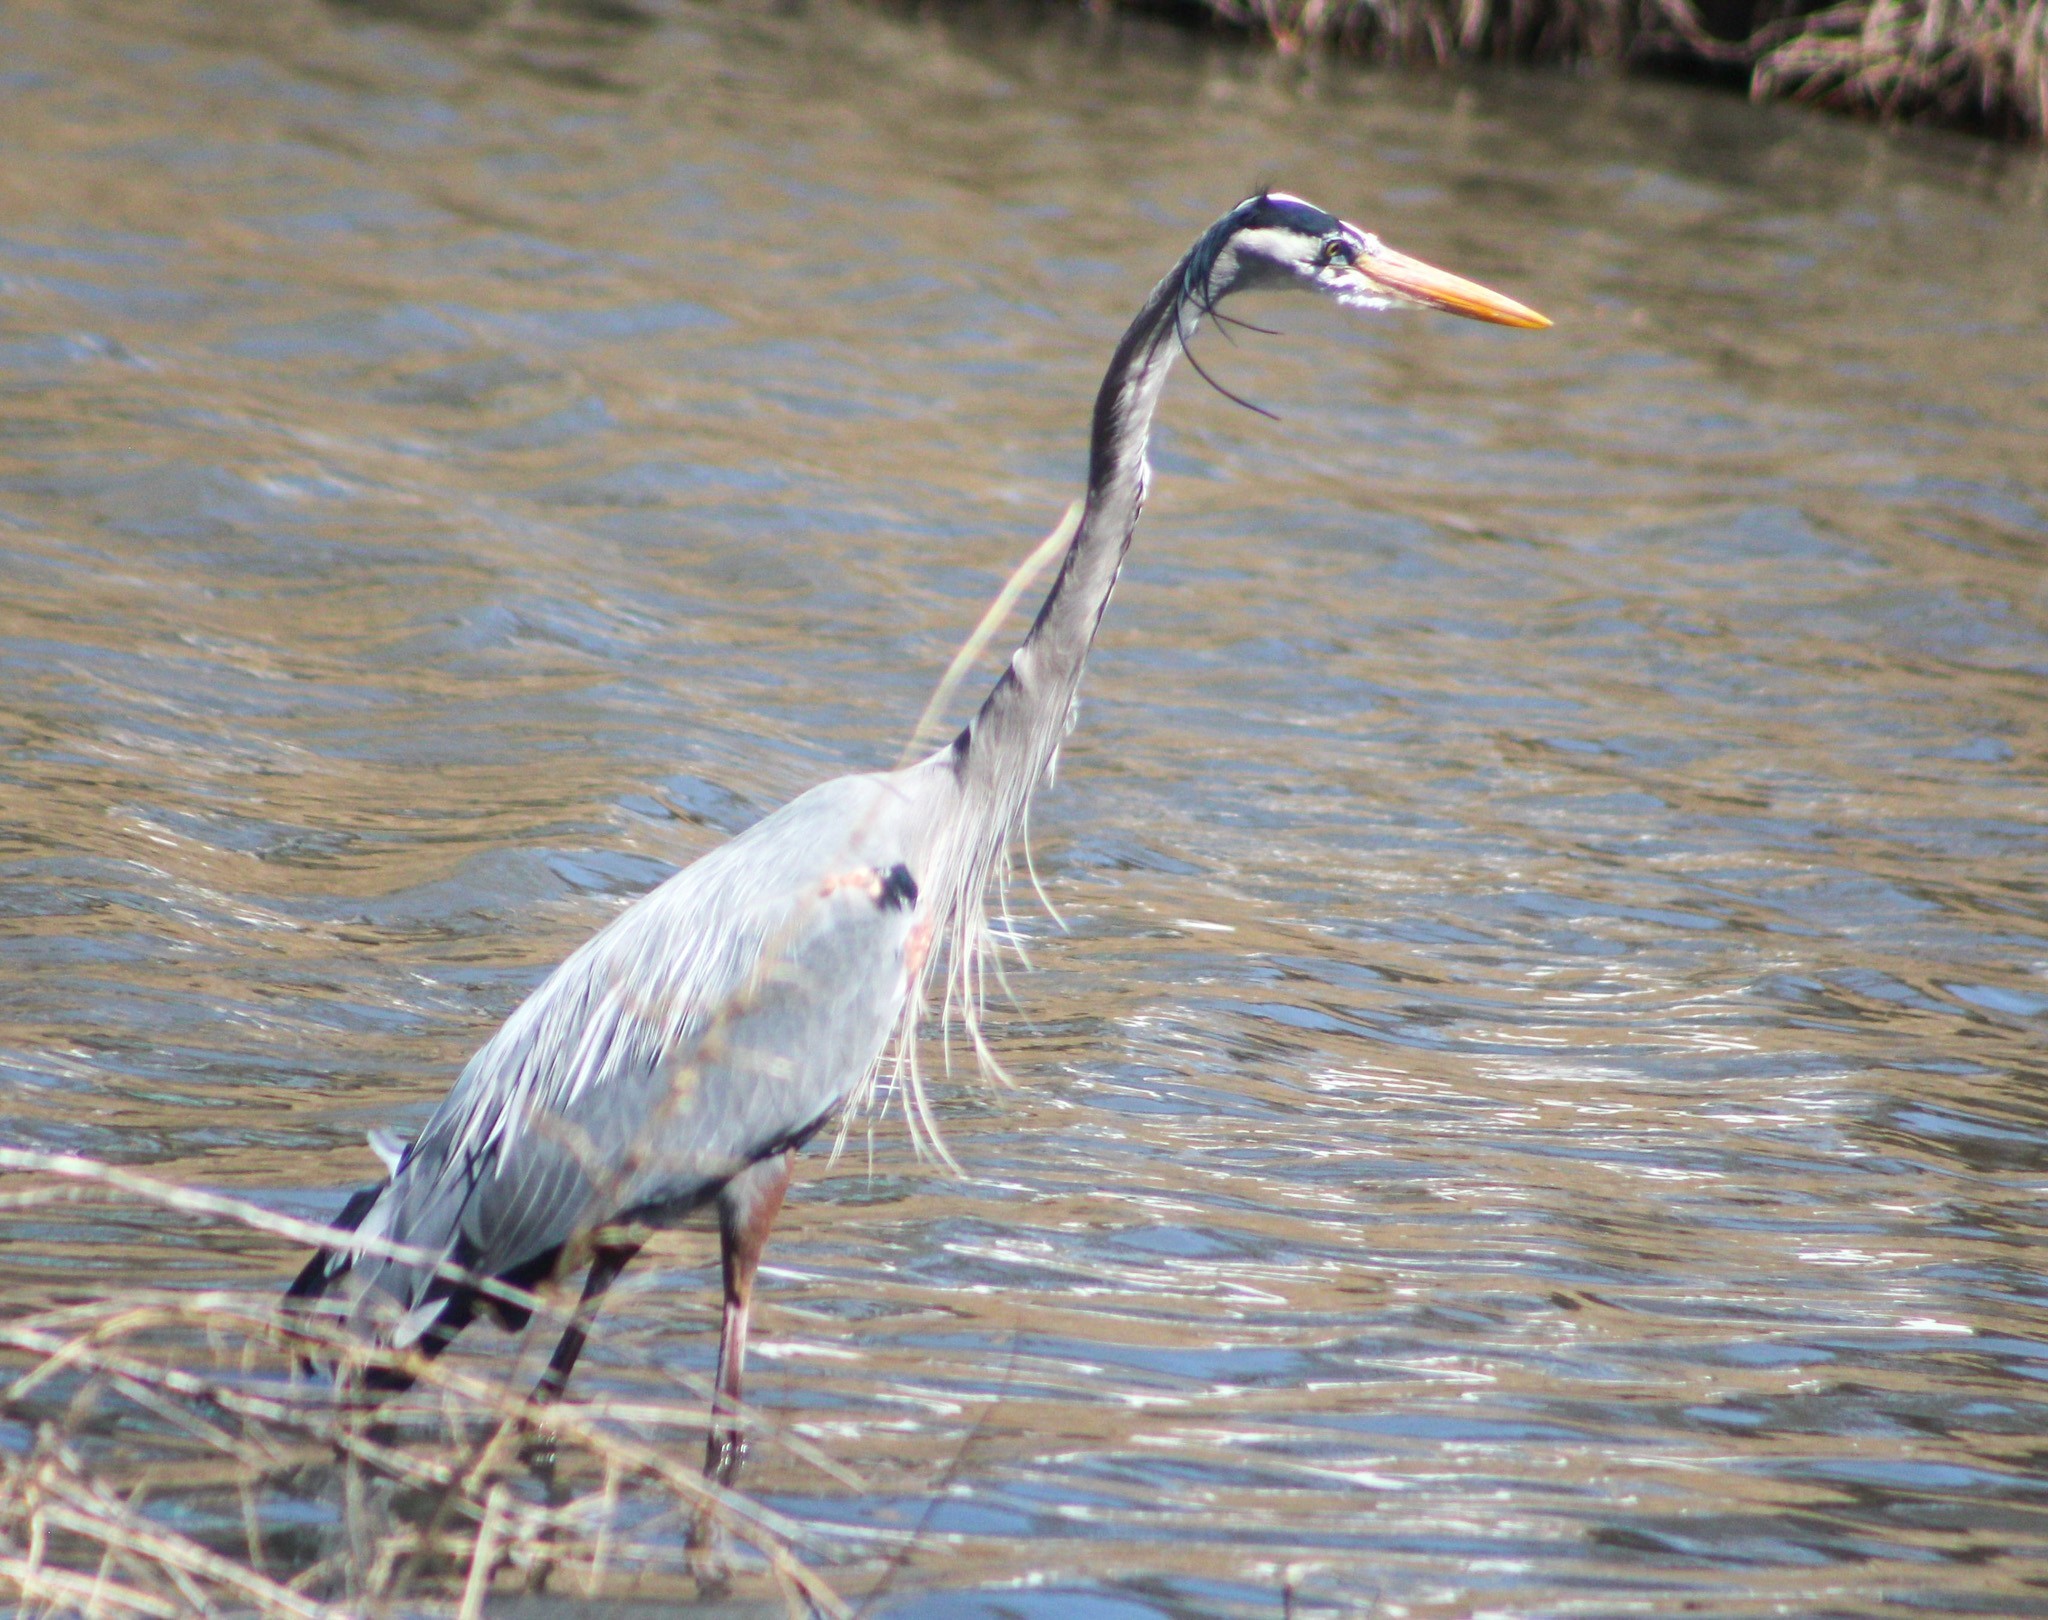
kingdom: Animalia
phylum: Chordata
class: Aves
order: Pelecaniformes
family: Ardeidae
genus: Ardea
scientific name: Ardea herodias
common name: Great blue heron
